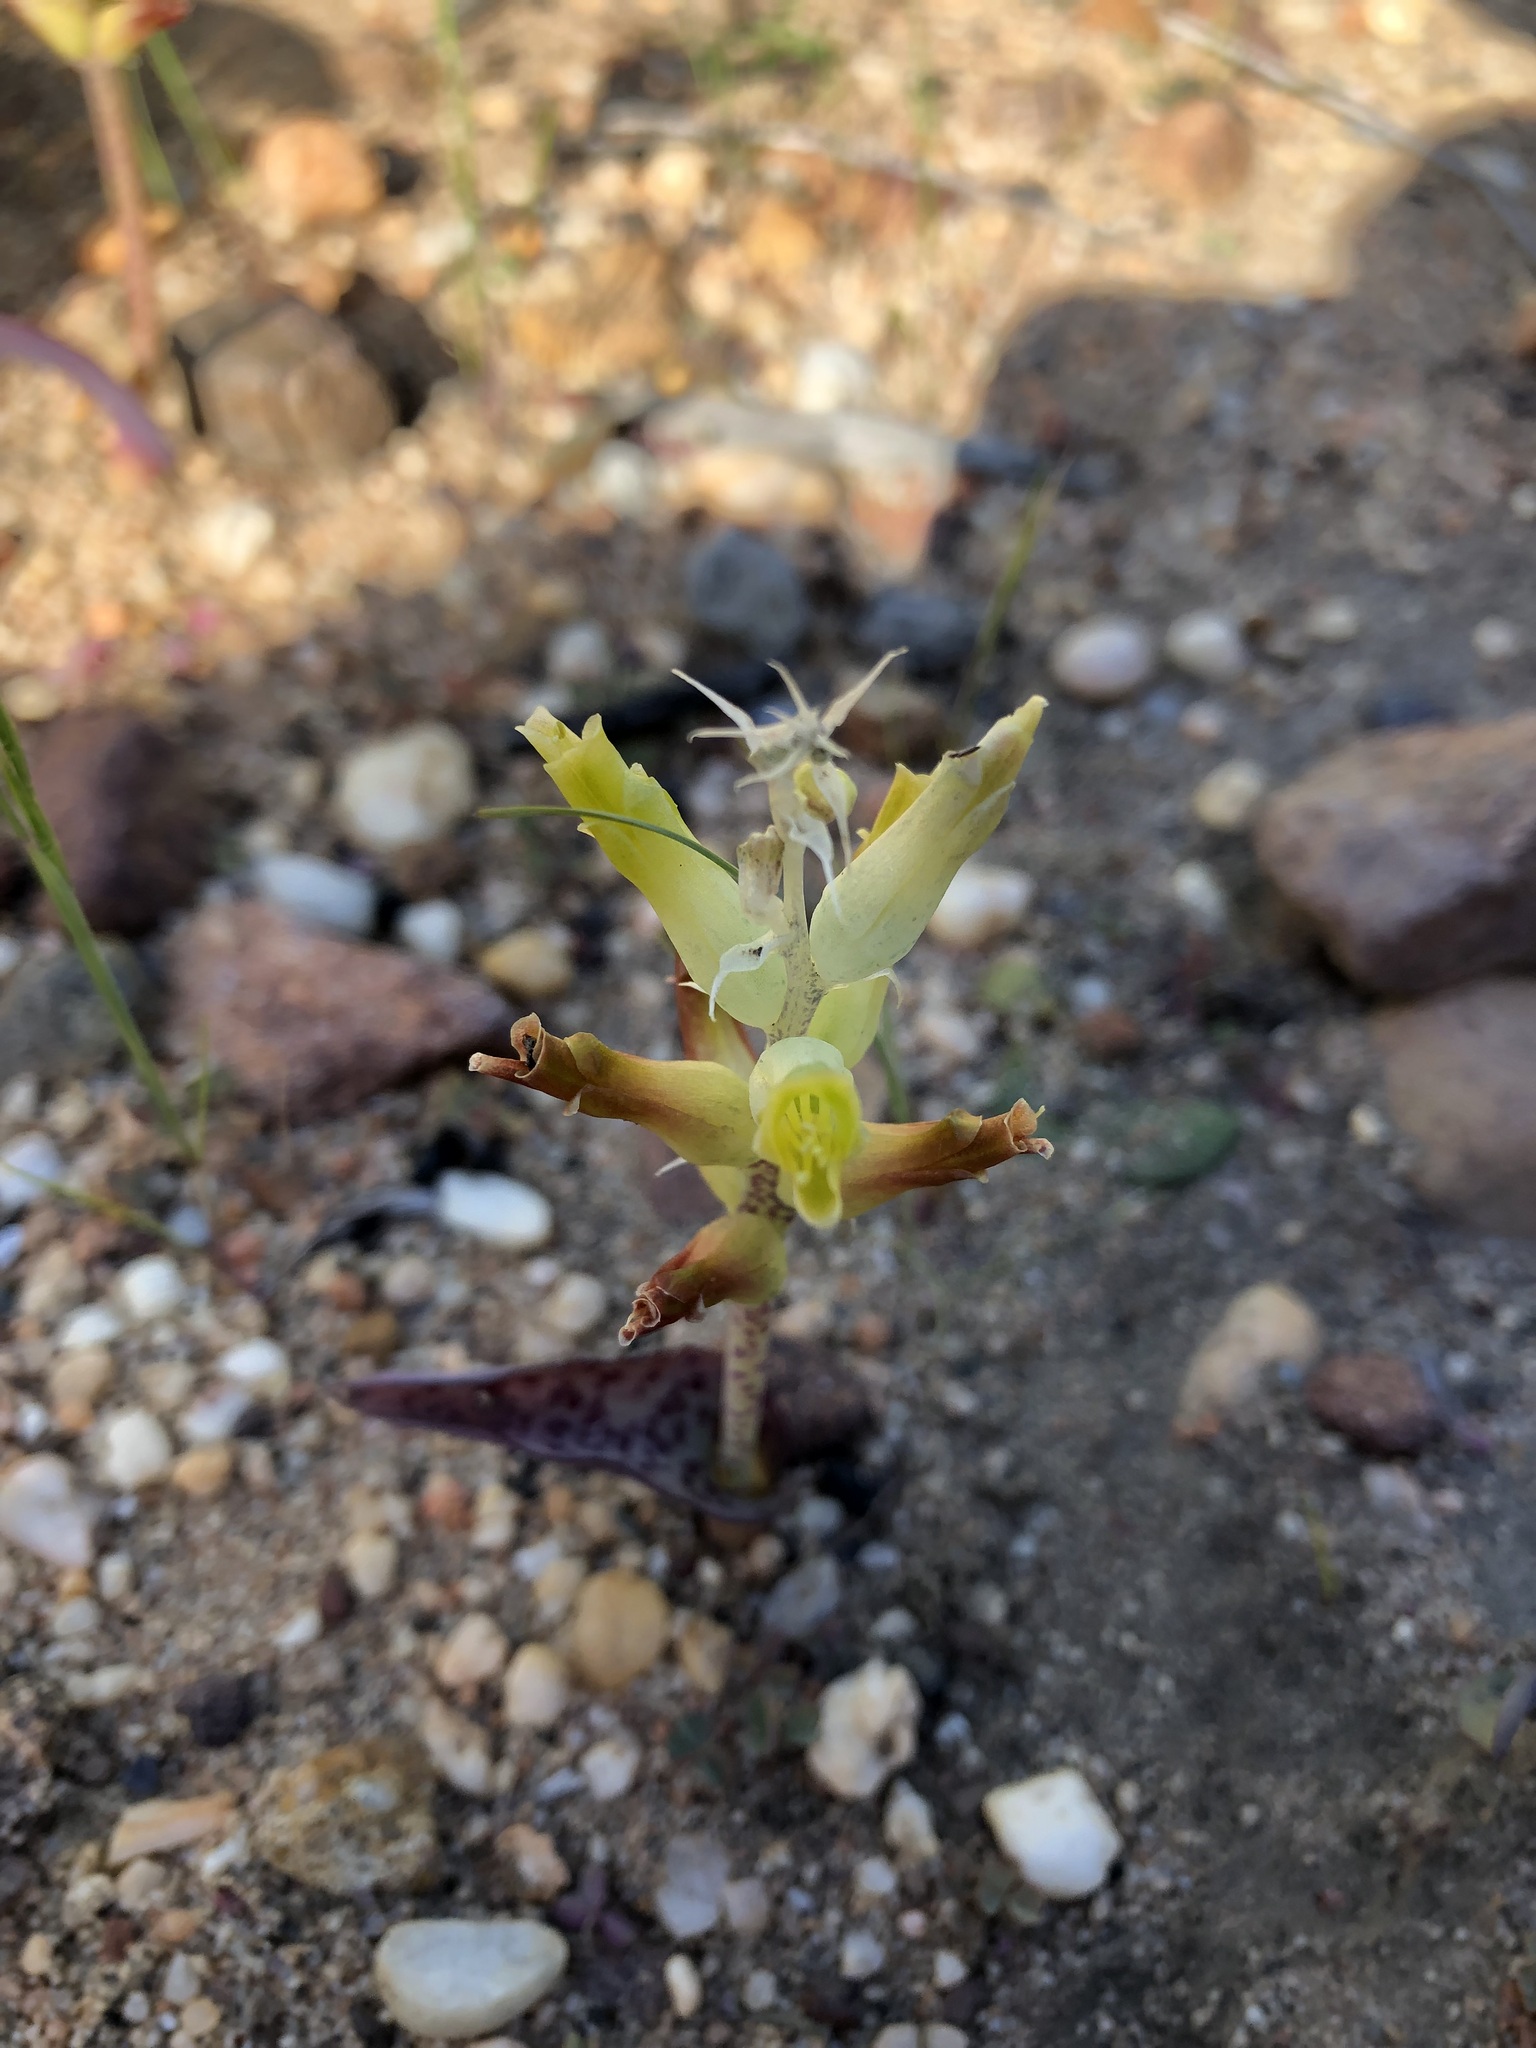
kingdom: Plantae
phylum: Tracheophyta
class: Liliopsida
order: Asparagales
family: Asparagaceae
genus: Lachenalia
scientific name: Lachenalia orchioides
